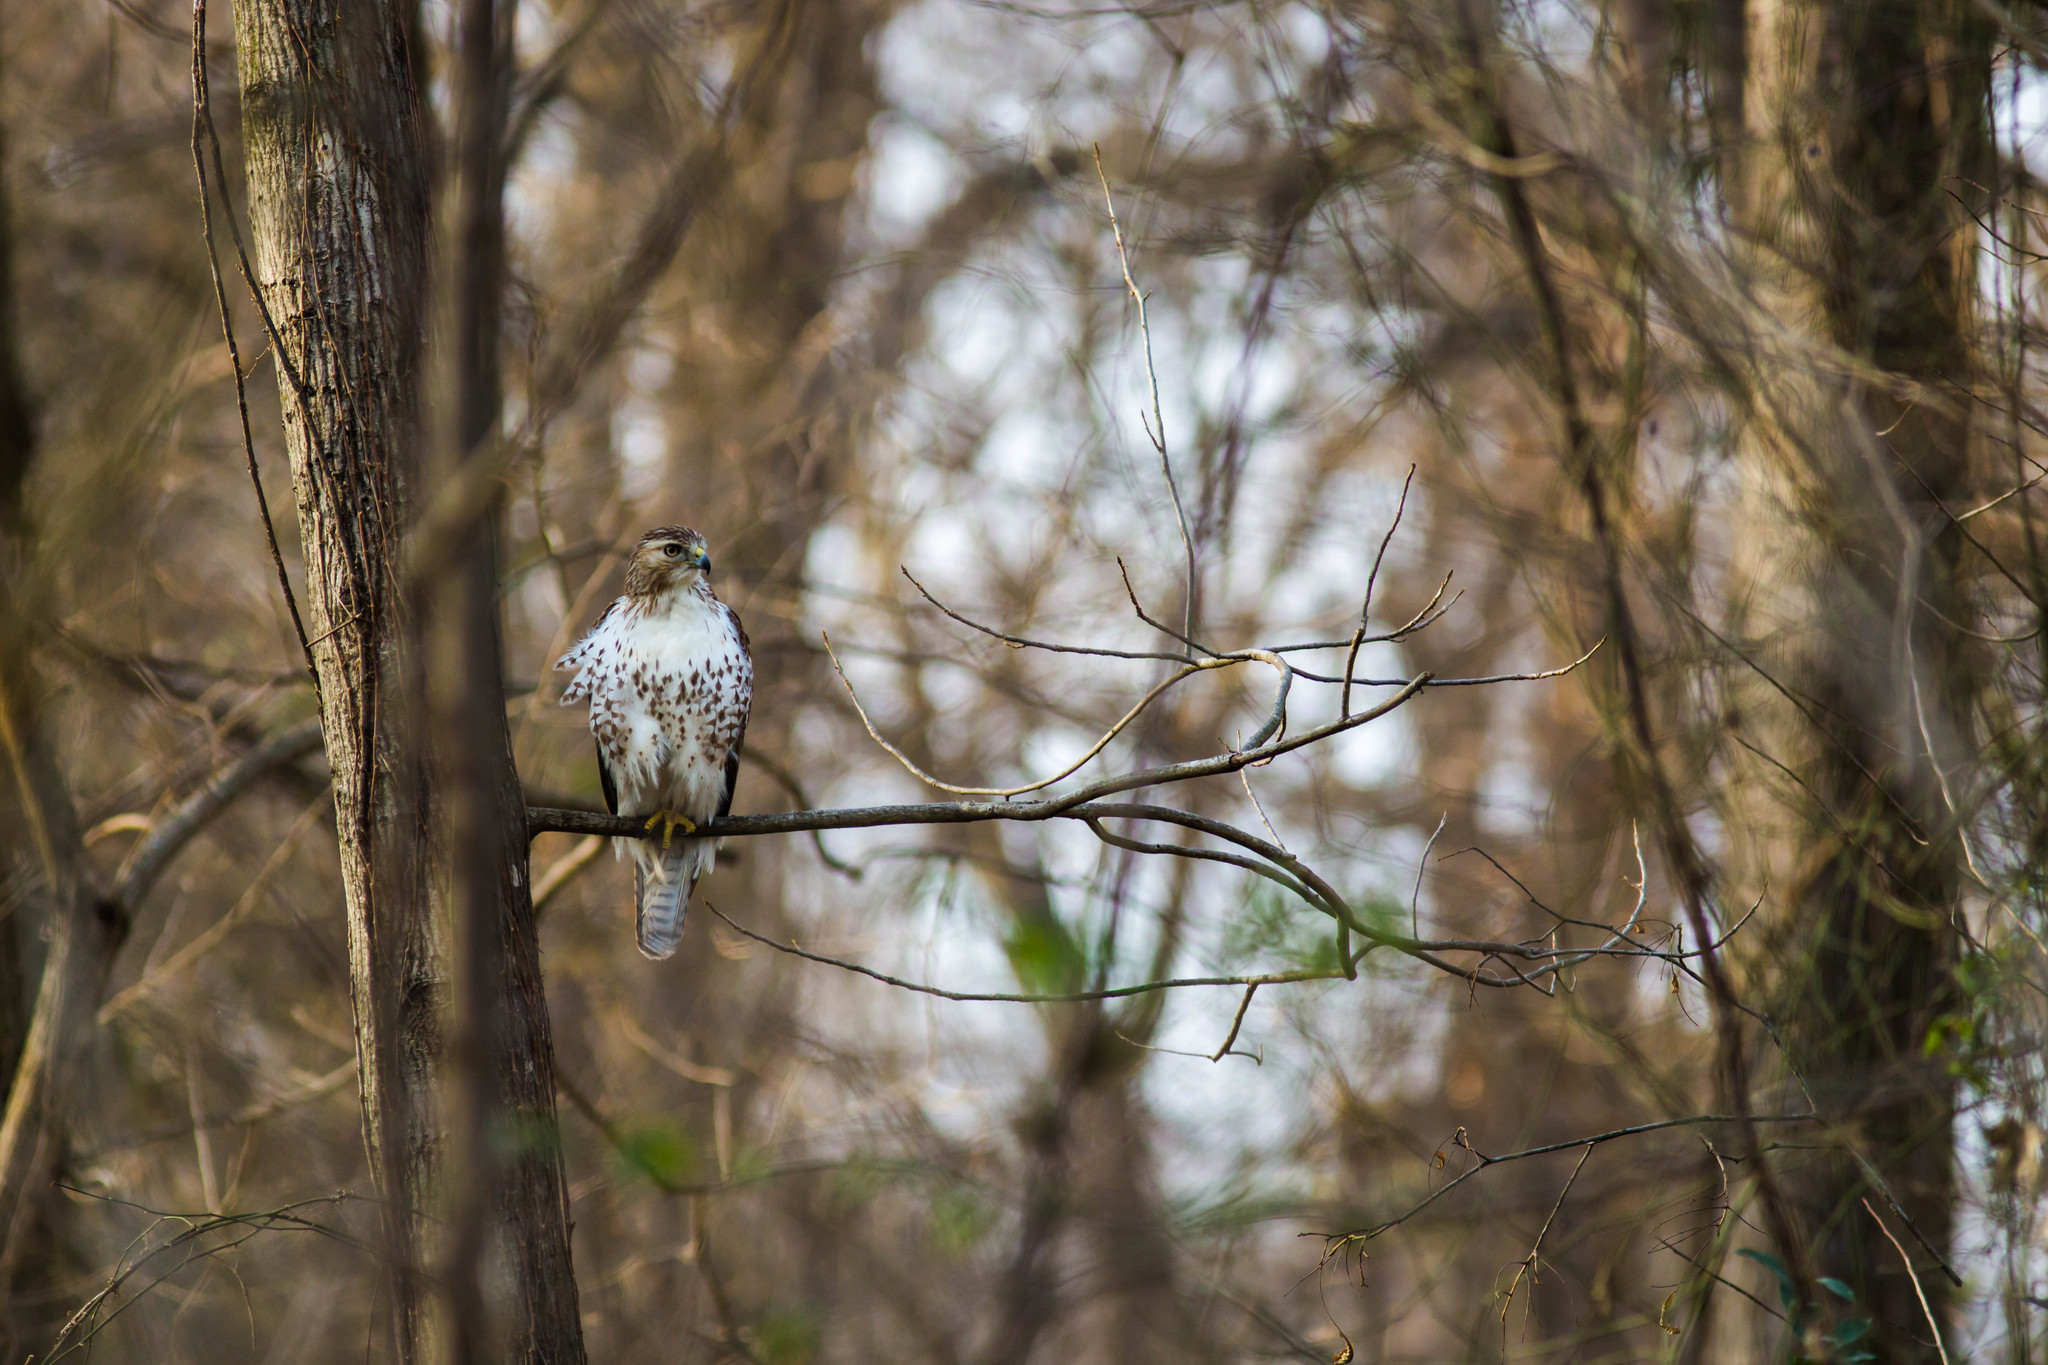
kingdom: Animalia
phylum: Chordata
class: Aves
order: Accipitriformes
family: Accipitridae
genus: Buteo
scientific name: Buteo jamaicensis
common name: Red-tailed hawk
